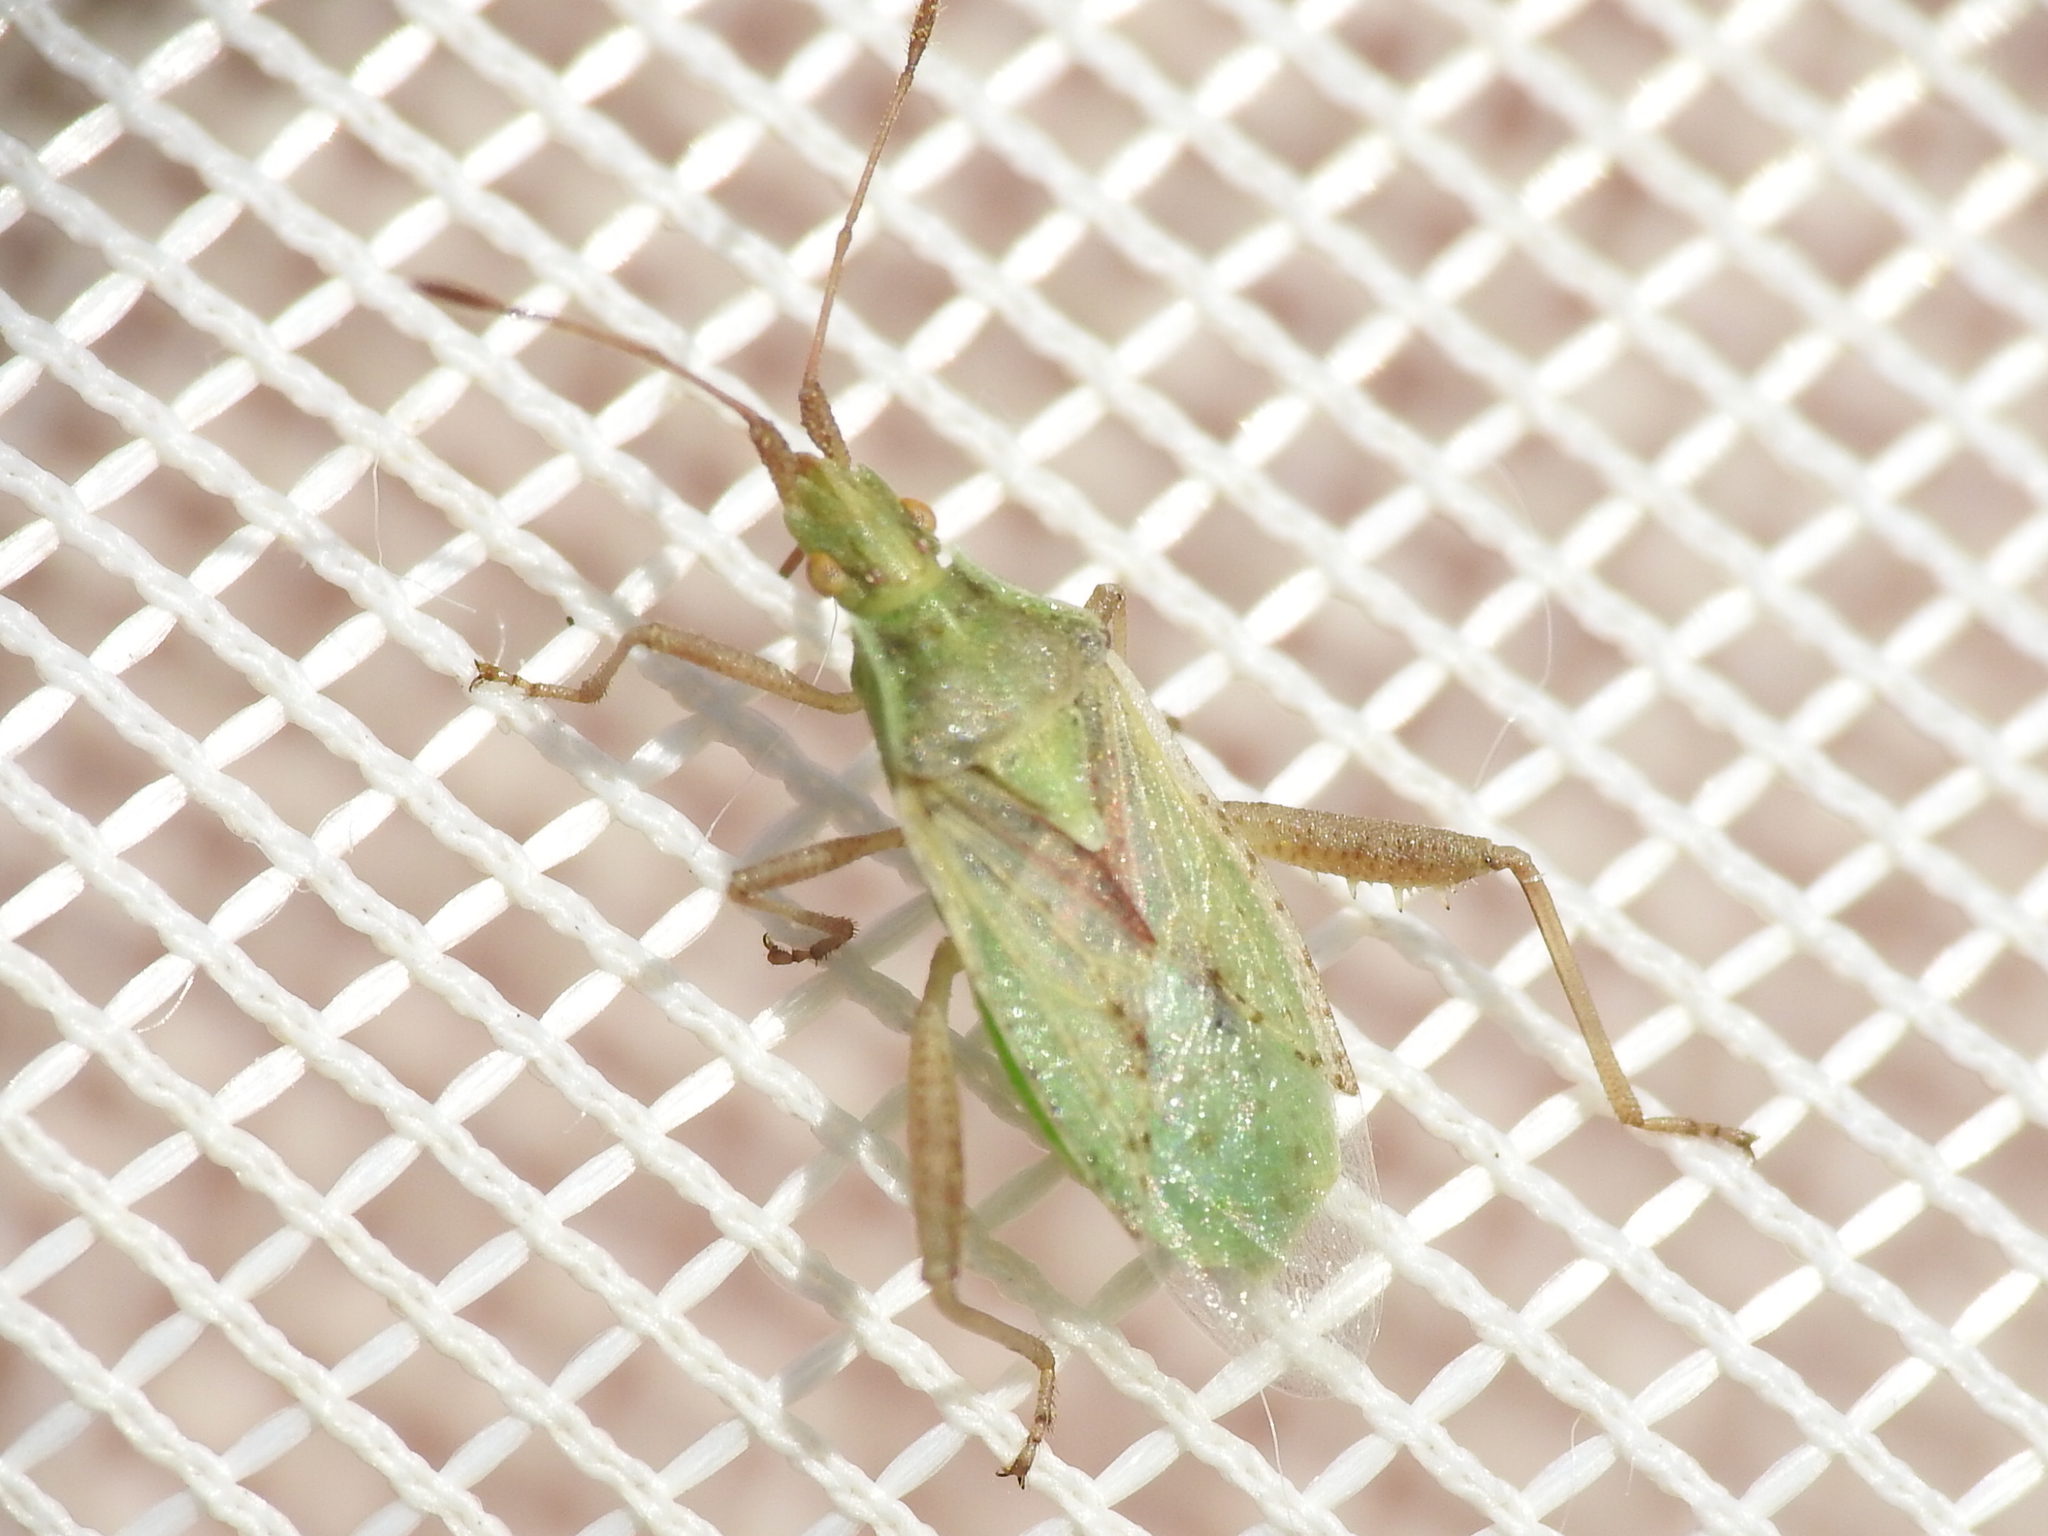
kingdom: Animalia
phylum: Arthropoda
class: Insecta
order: Hemiptera
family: Rhopalidae
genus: Harmostes
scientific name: Harmostes reflexulus
